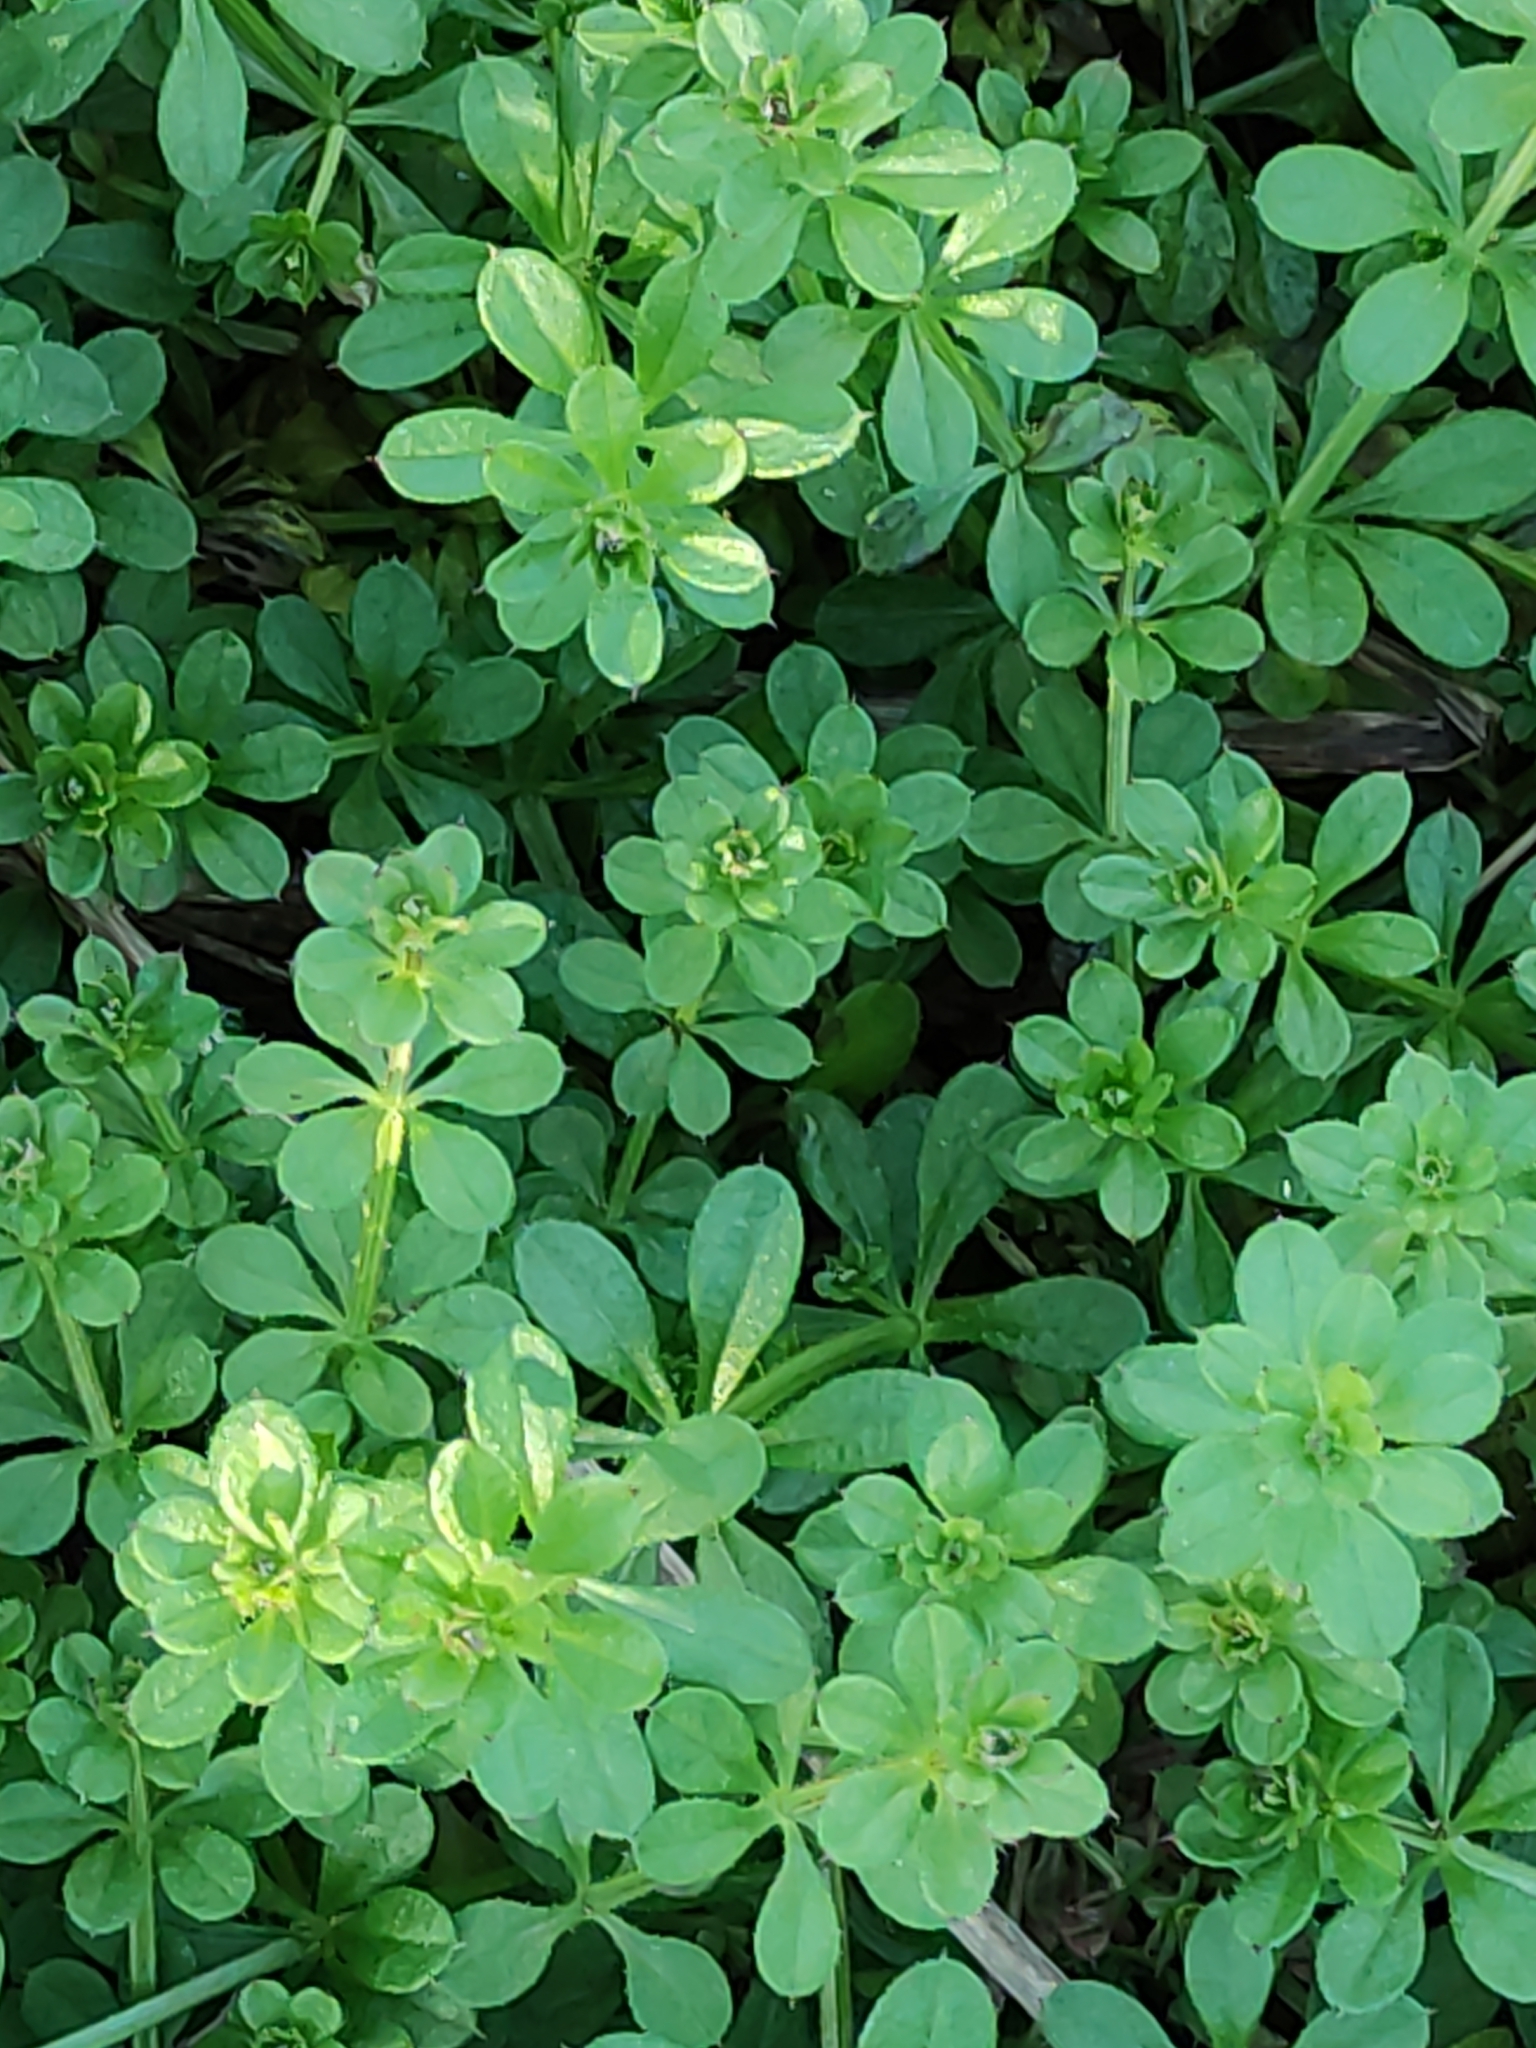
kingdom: Plantae
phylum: Tracheophyta
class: Magnoliopsida
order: Gentianales
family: Rubiaceae
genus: Galium
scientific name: Galium aparine
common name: Cleavers
